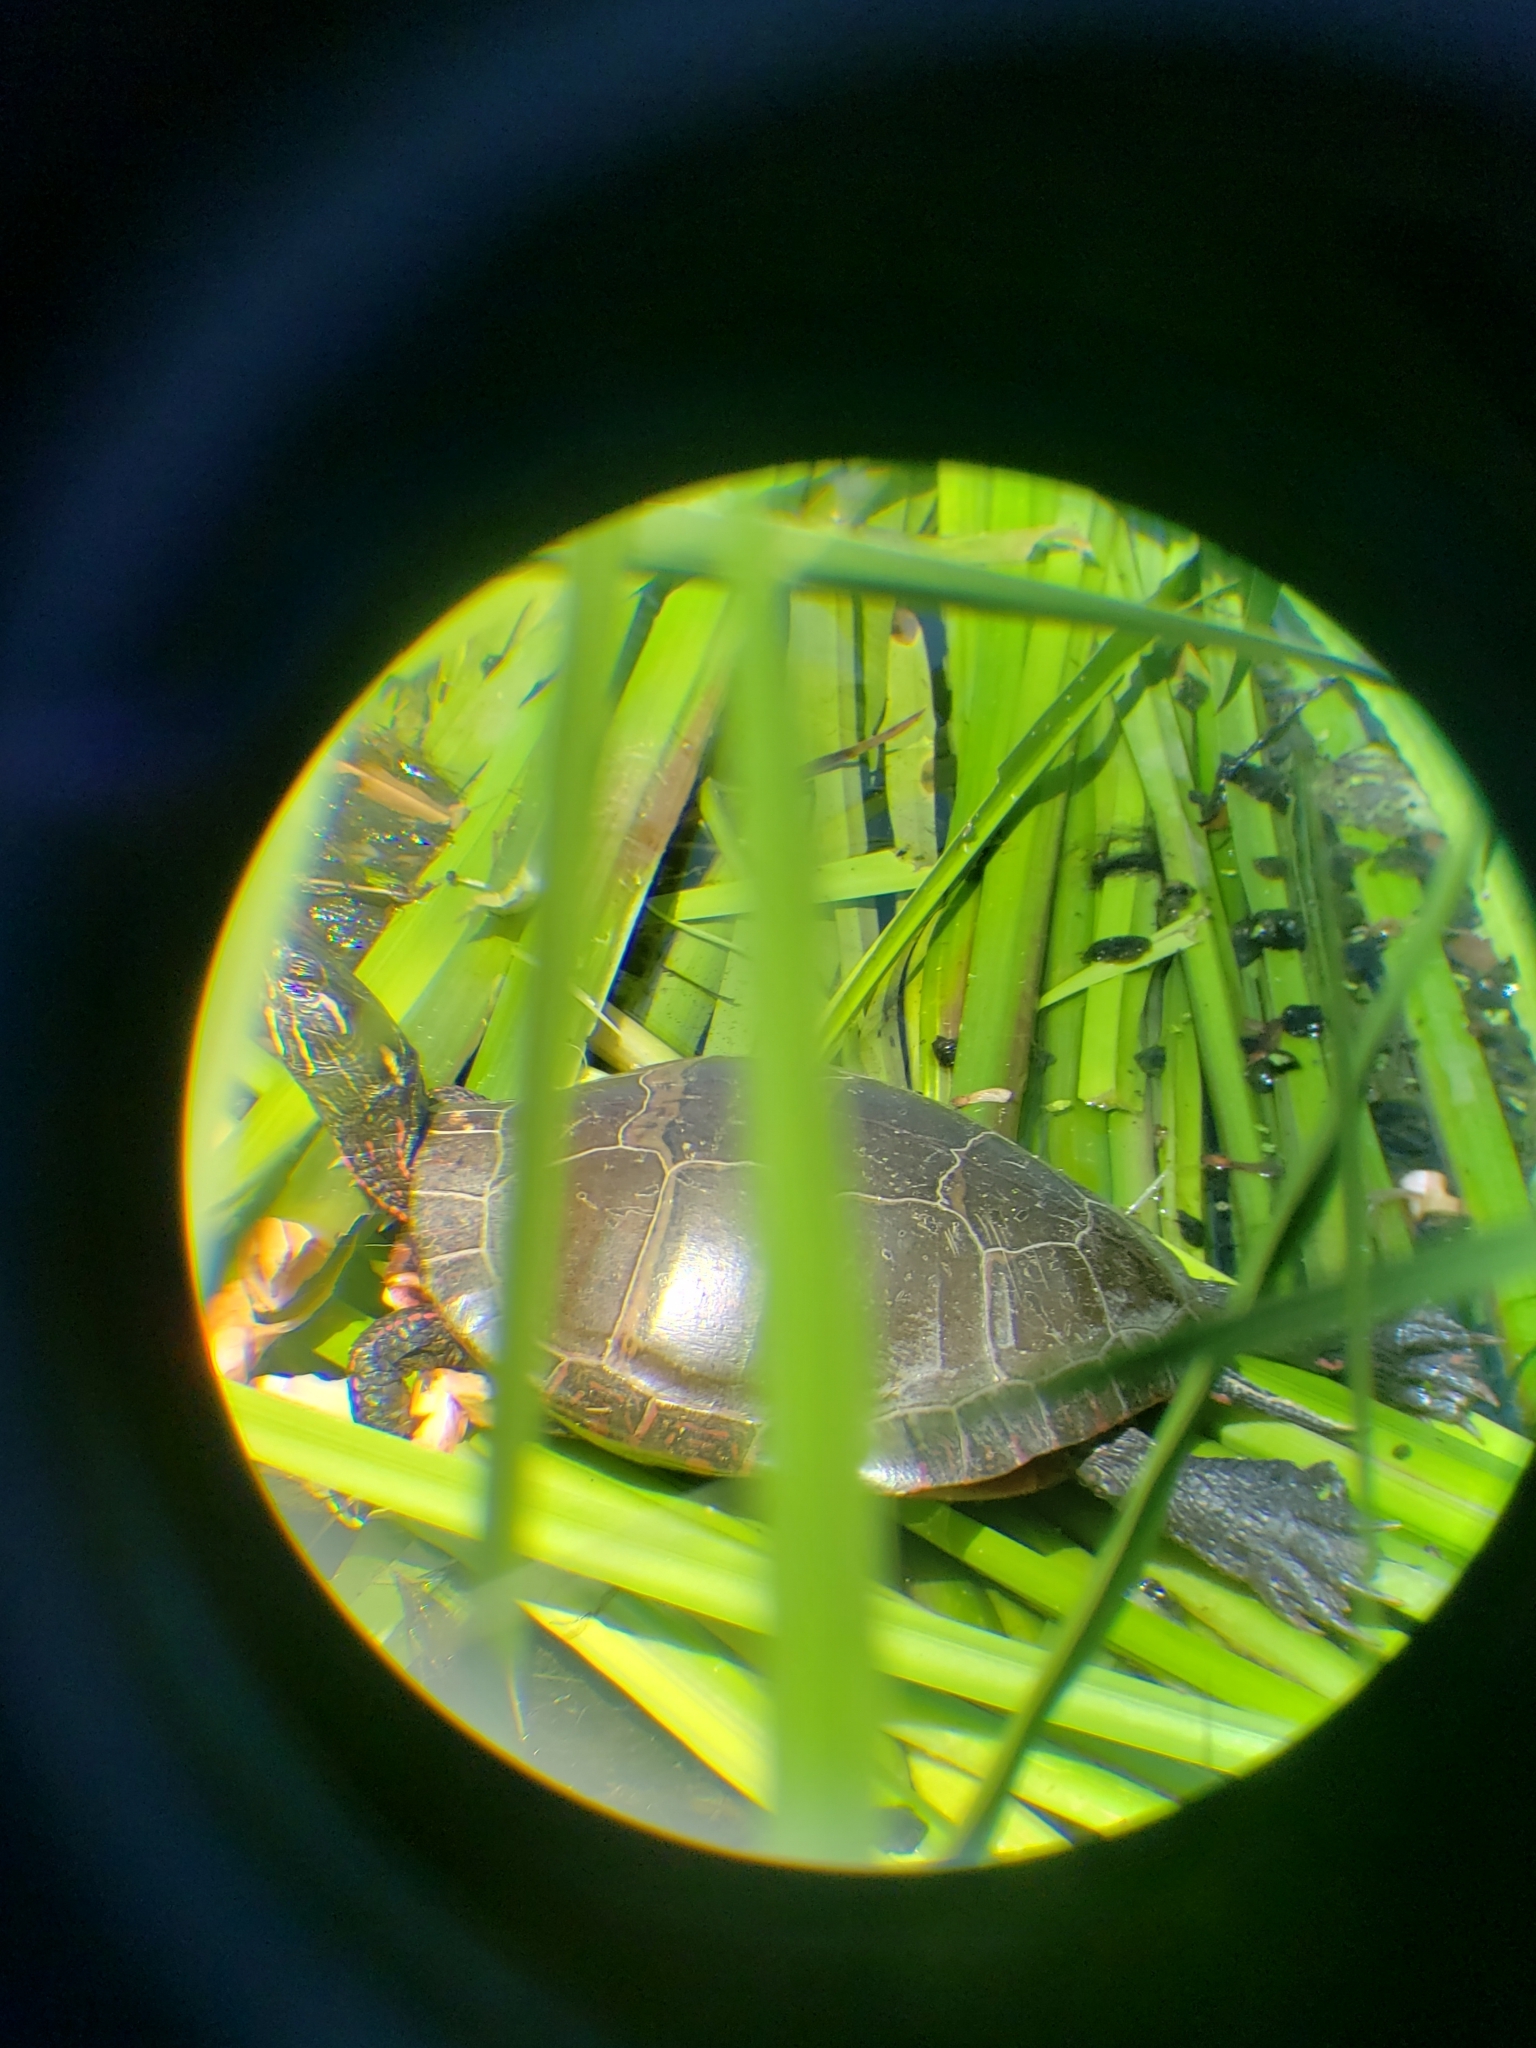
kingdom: Animalia
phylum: Chordata
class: Testudines
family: Emydidae
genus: Chrysemys
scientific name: Chrysemys picta
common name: Painted turtle
